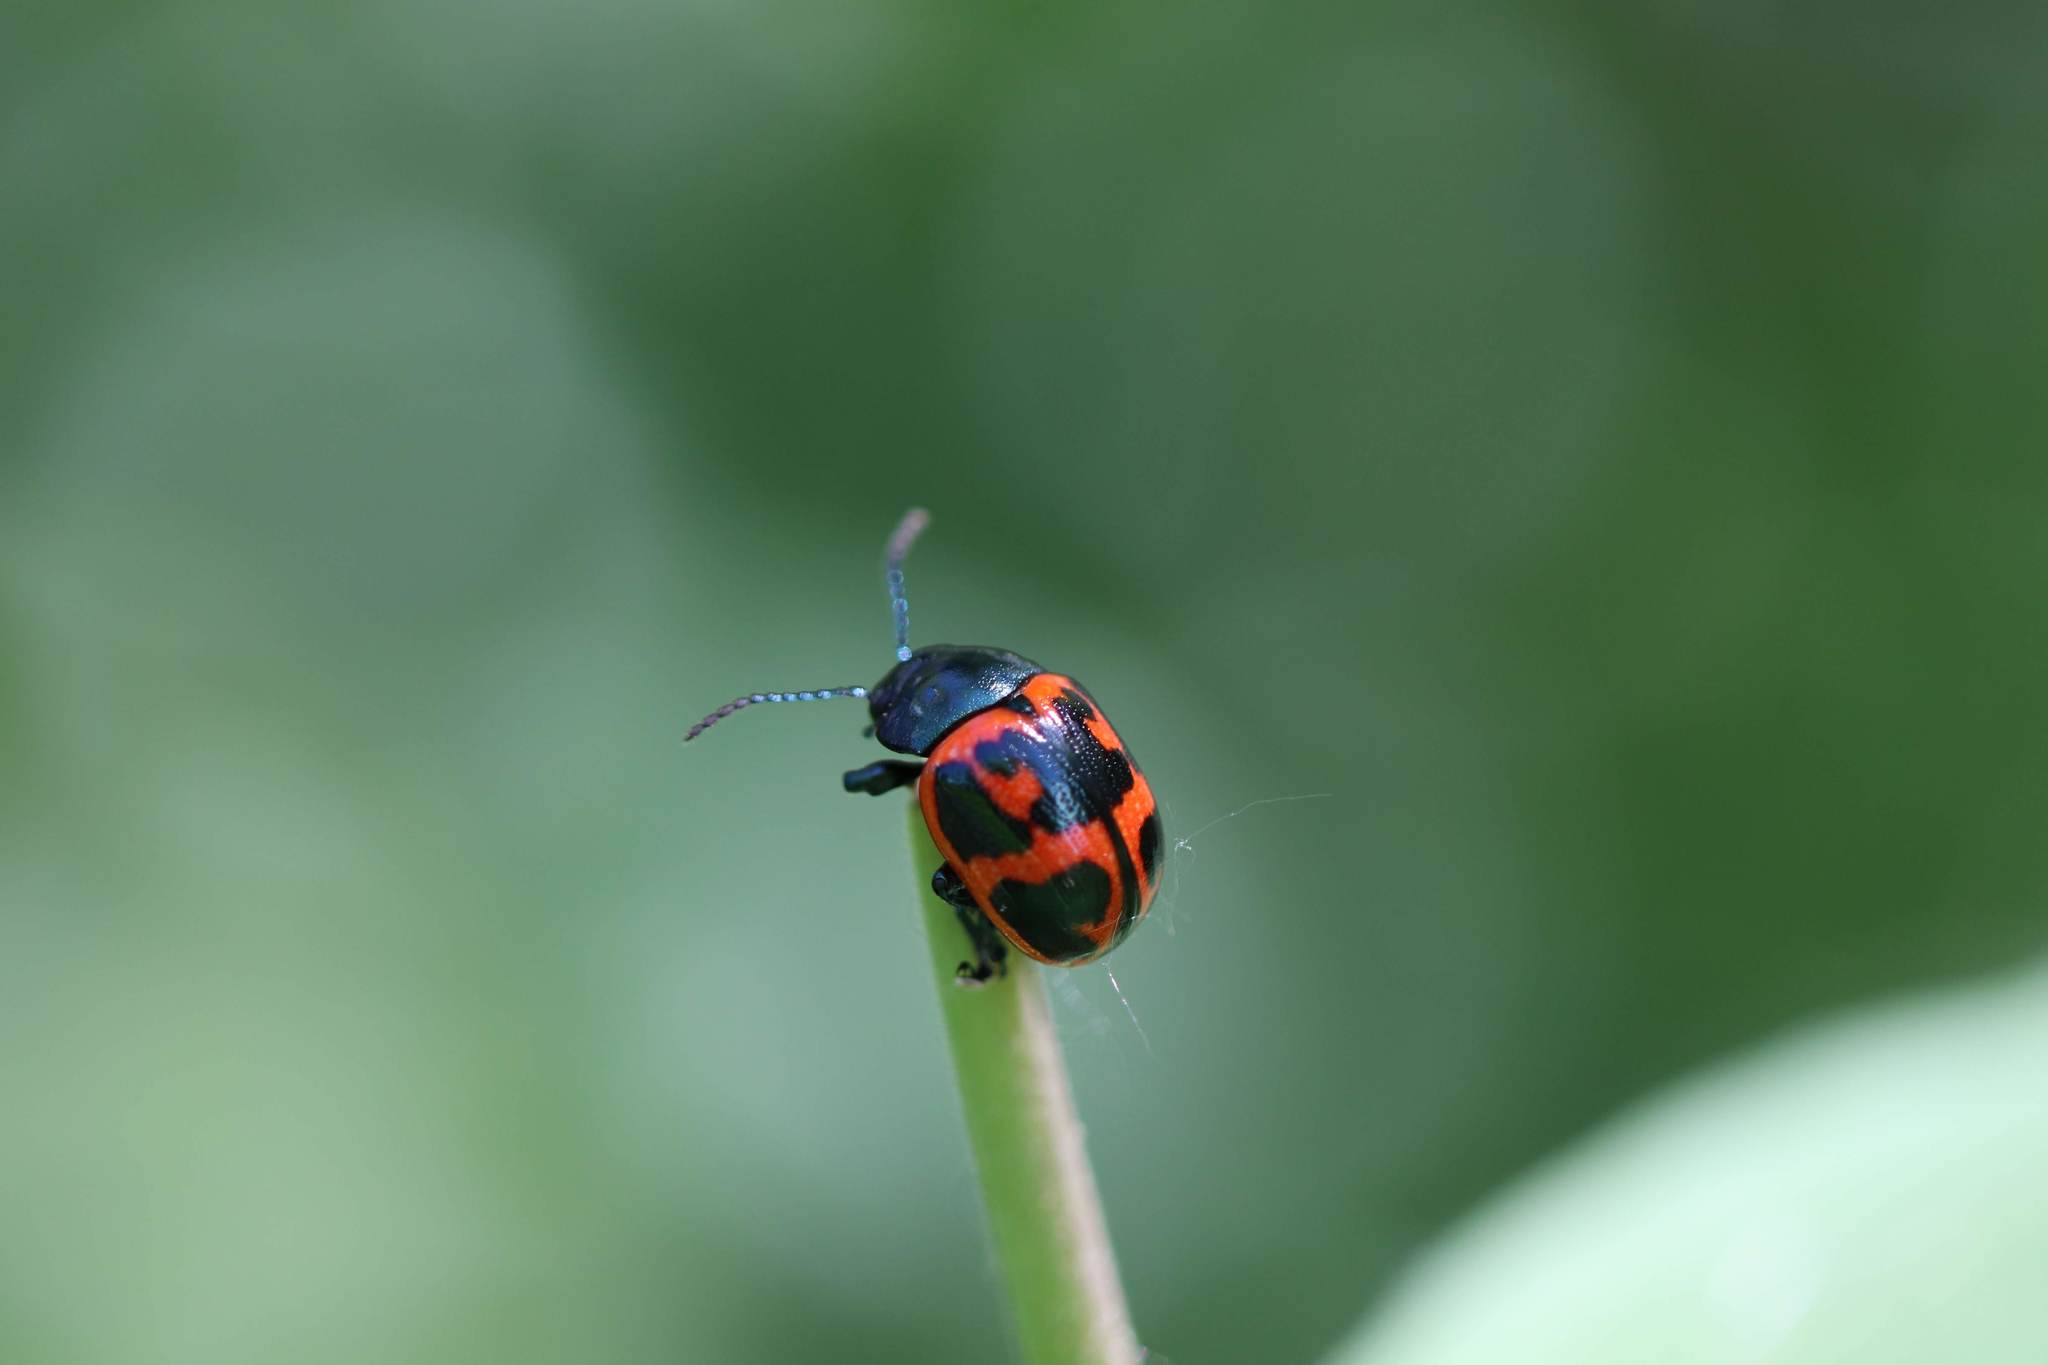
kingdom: Animalia
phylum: Arthropoda
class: Insecta
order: Coleoptera
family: Chrysomelidae
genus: Labidomera
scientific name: Labidomera clivicollis
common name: Swamp milkweed leaf beetle
